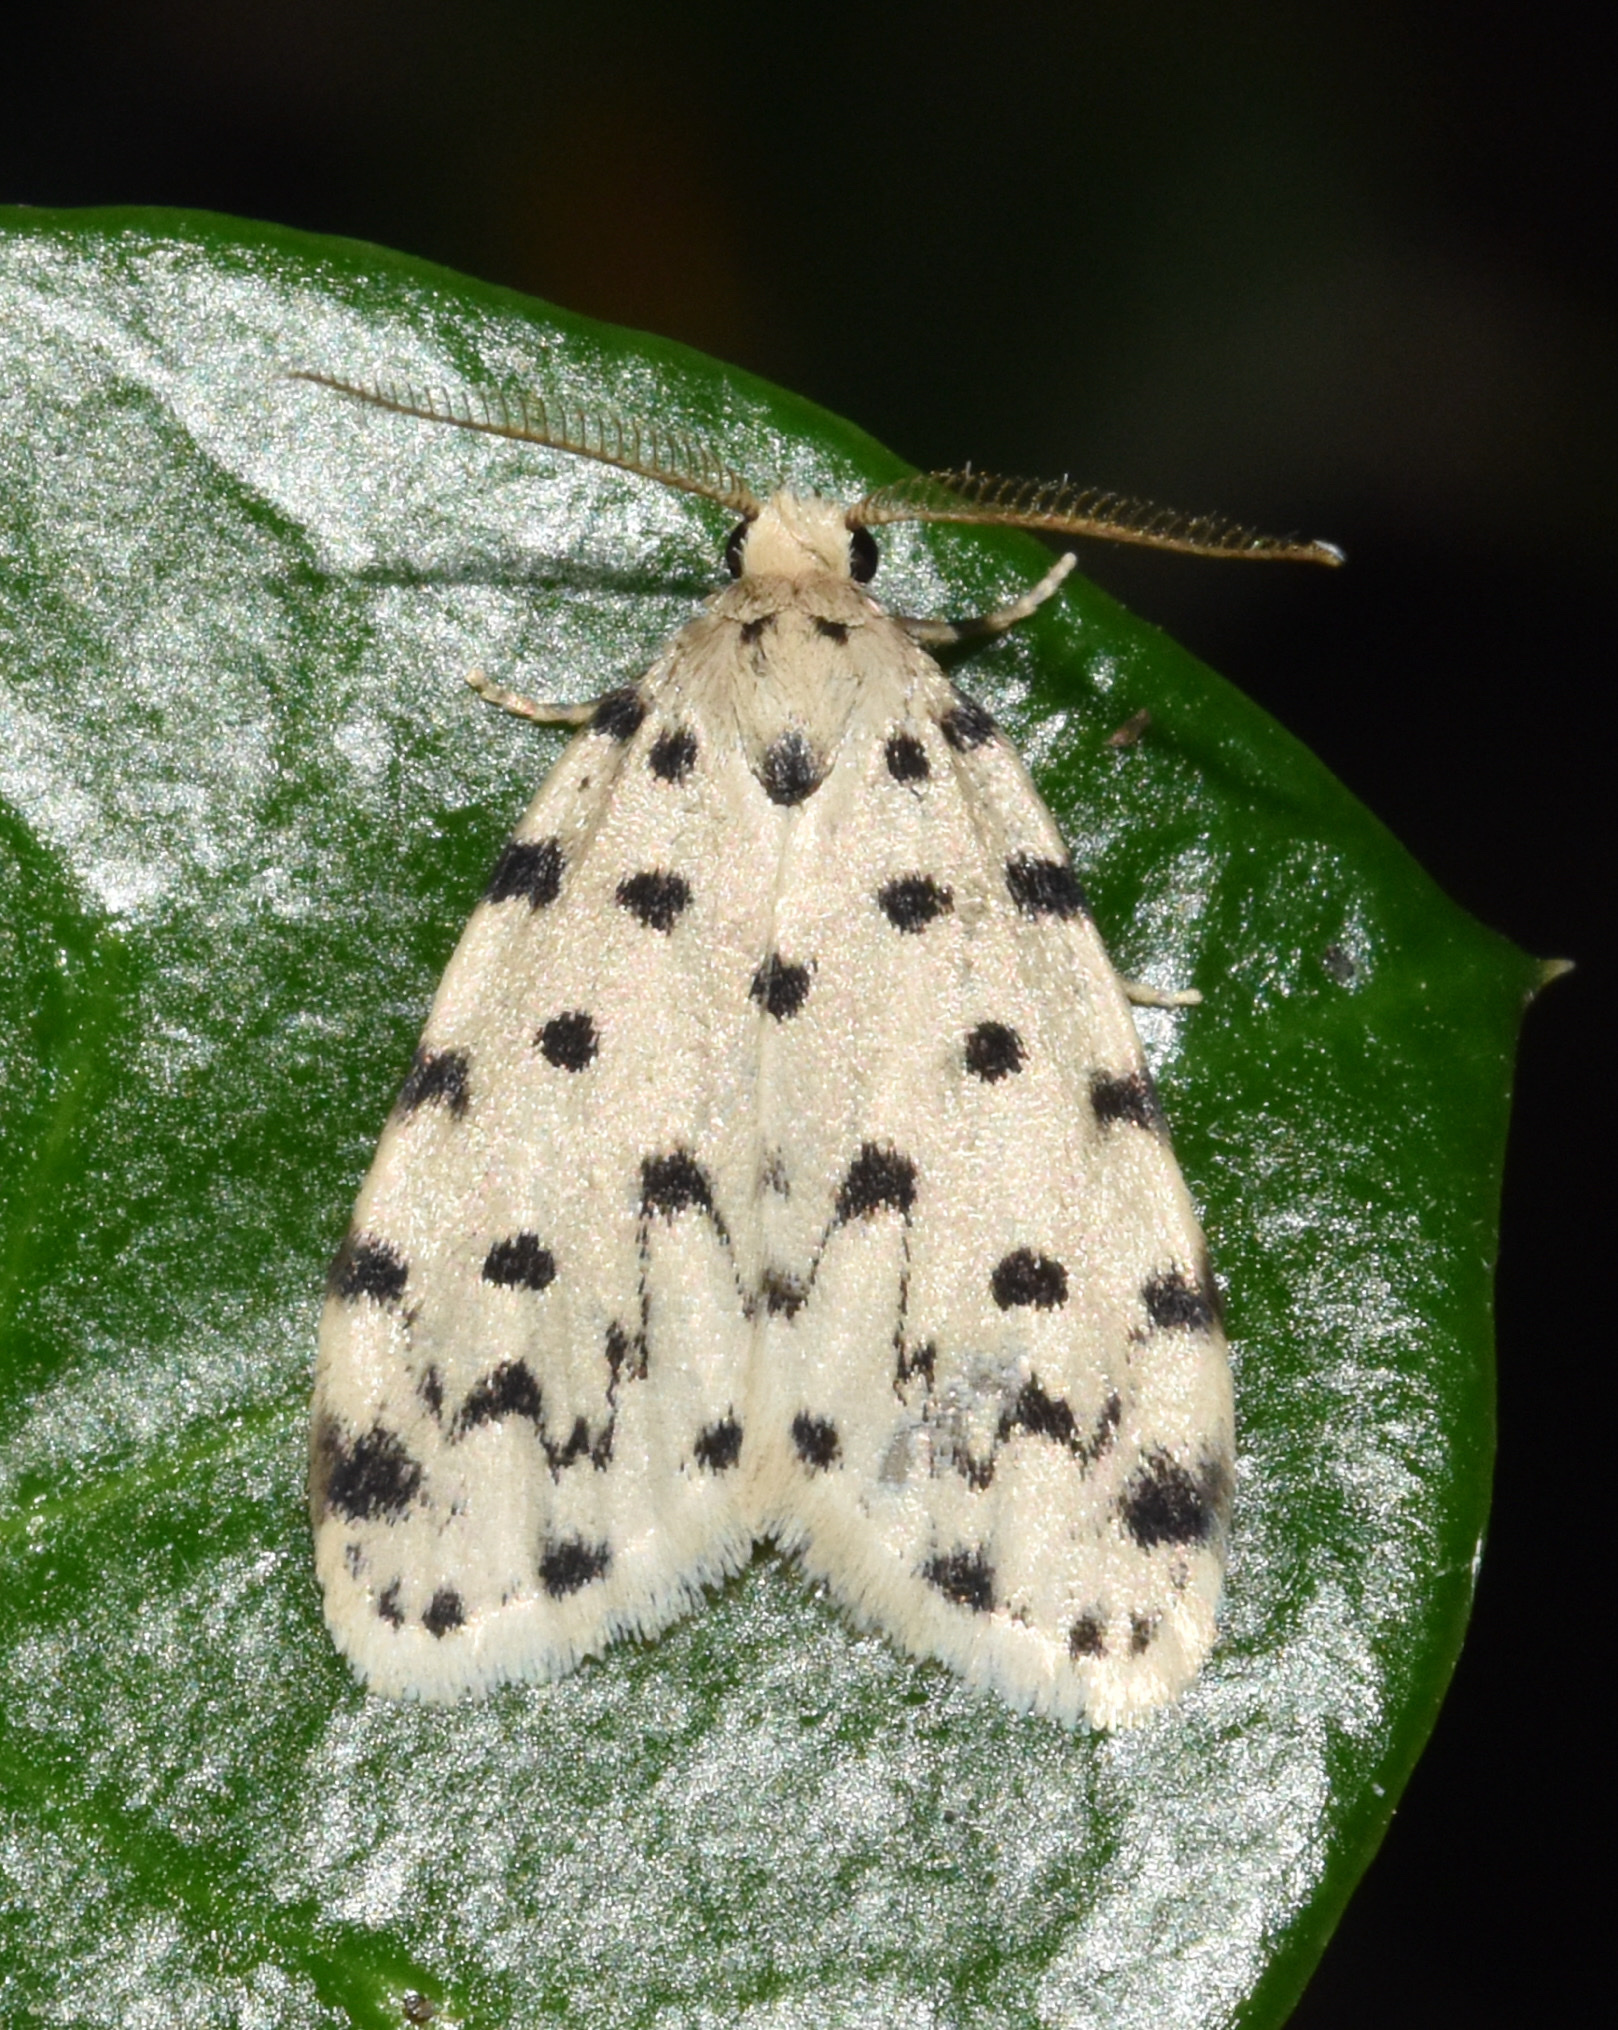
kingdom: Animalia
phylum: Arthropoda
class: Insecta
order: Lepidoptera
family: Erebidae
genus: Siccia
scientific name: Siccia caffra
